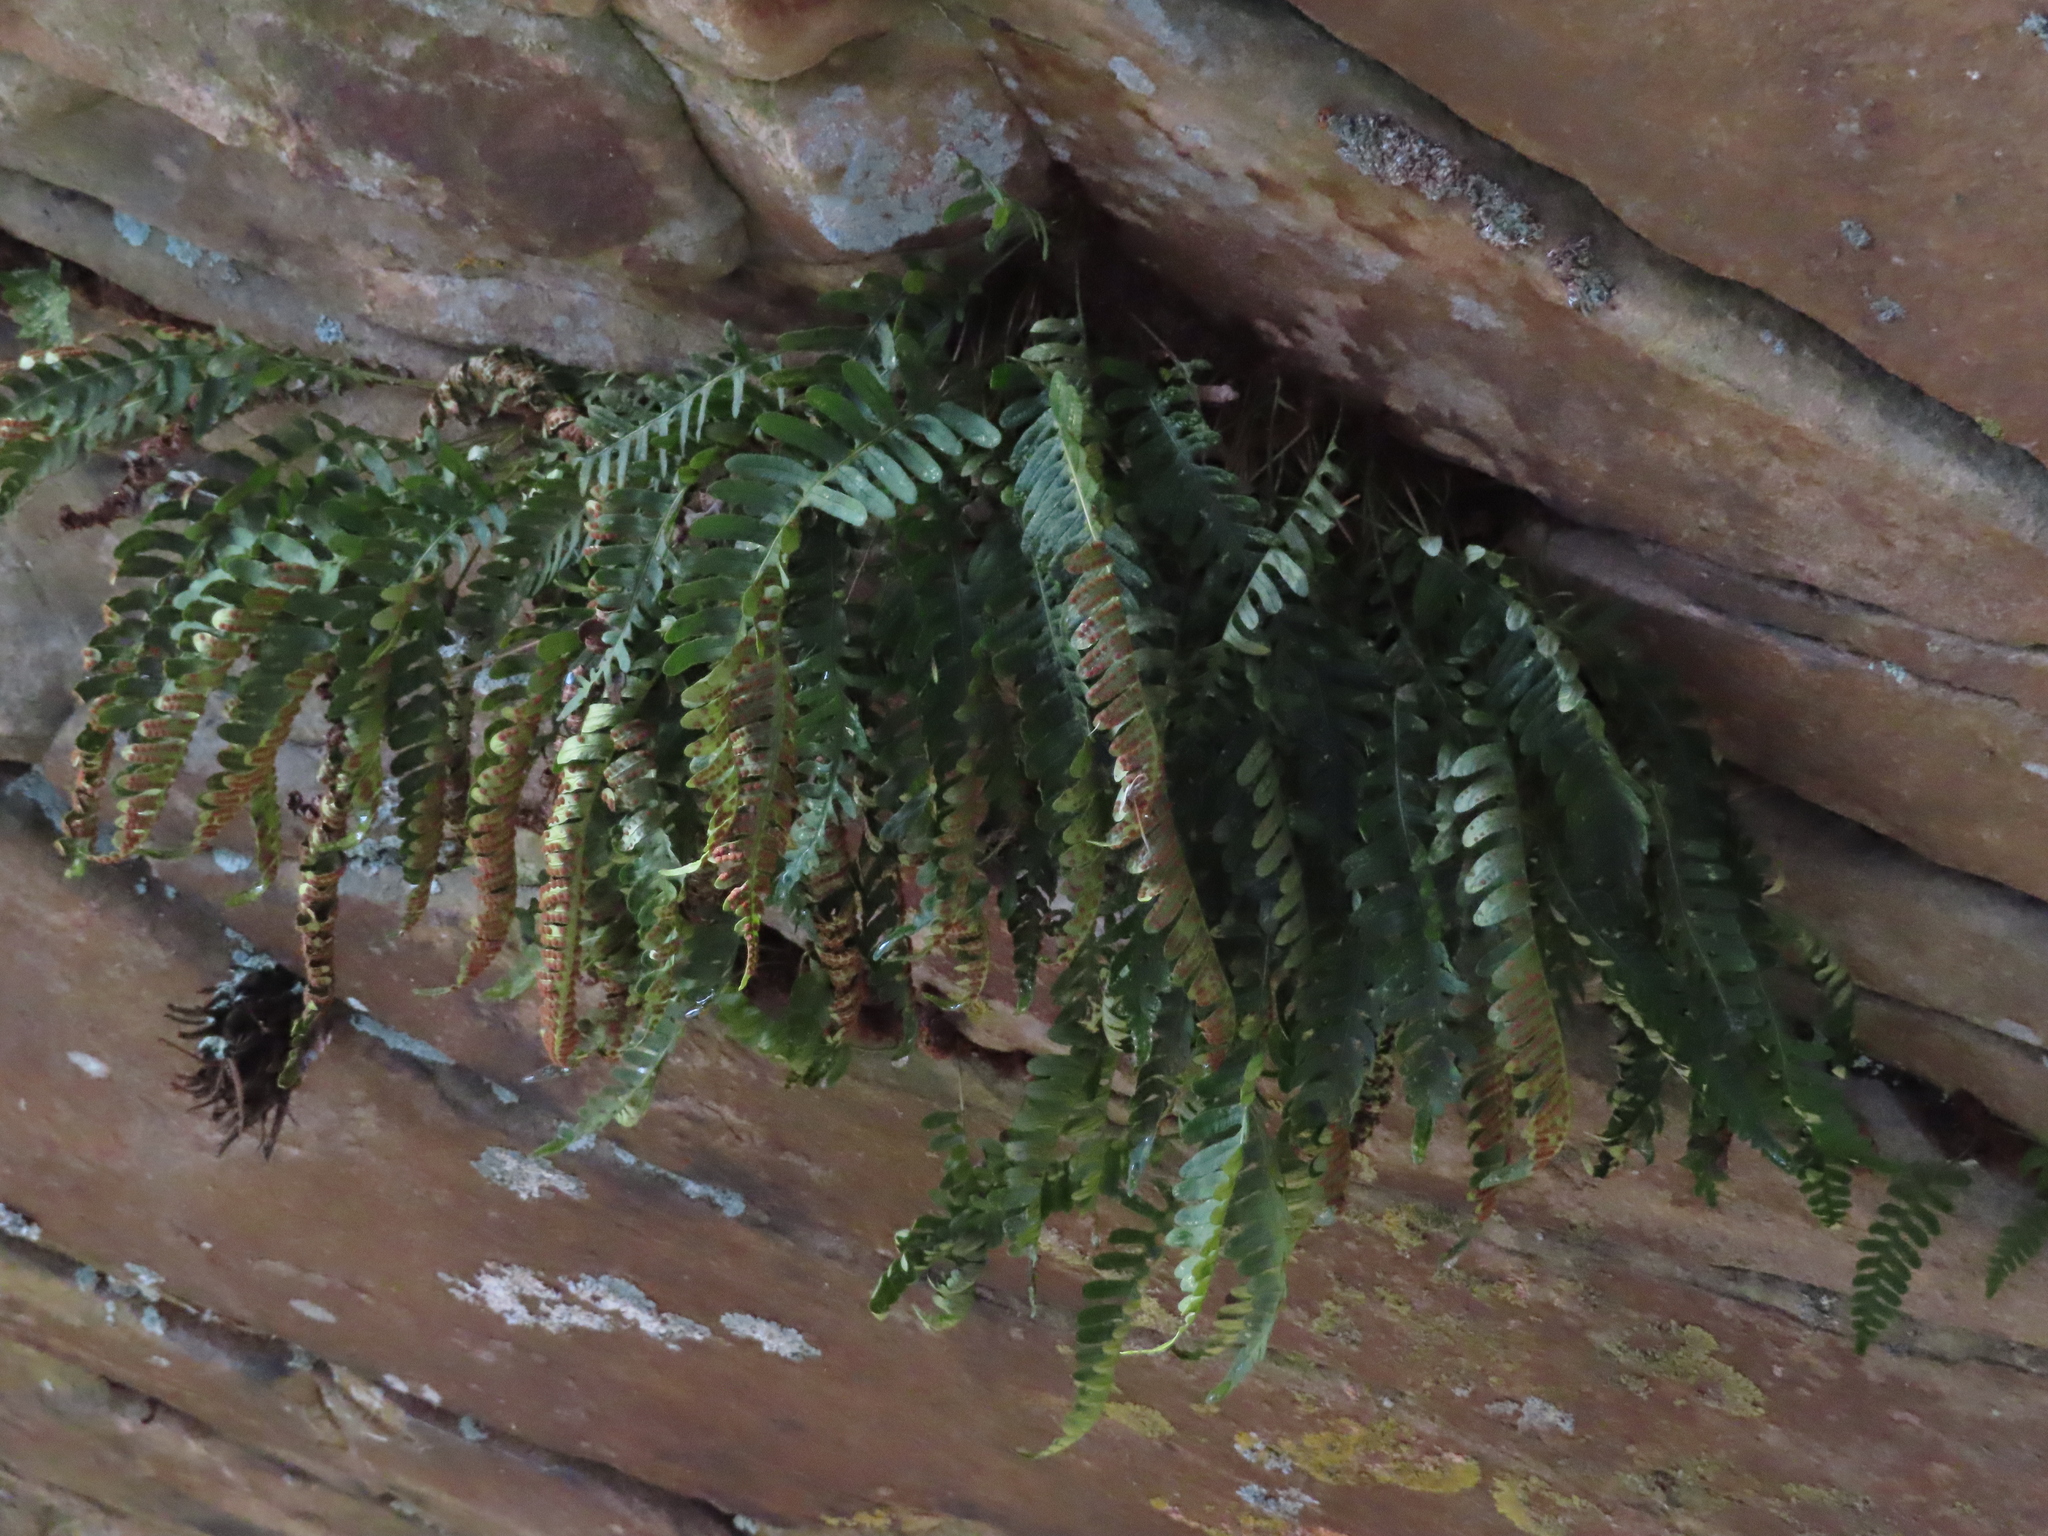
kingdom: Plantae
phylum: Tracheophyta
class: Polypodiopsida
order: Polypodiales
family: Polypodiaceae
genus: Polypodium
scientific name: Polypodium virginianum
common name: American wall fern
